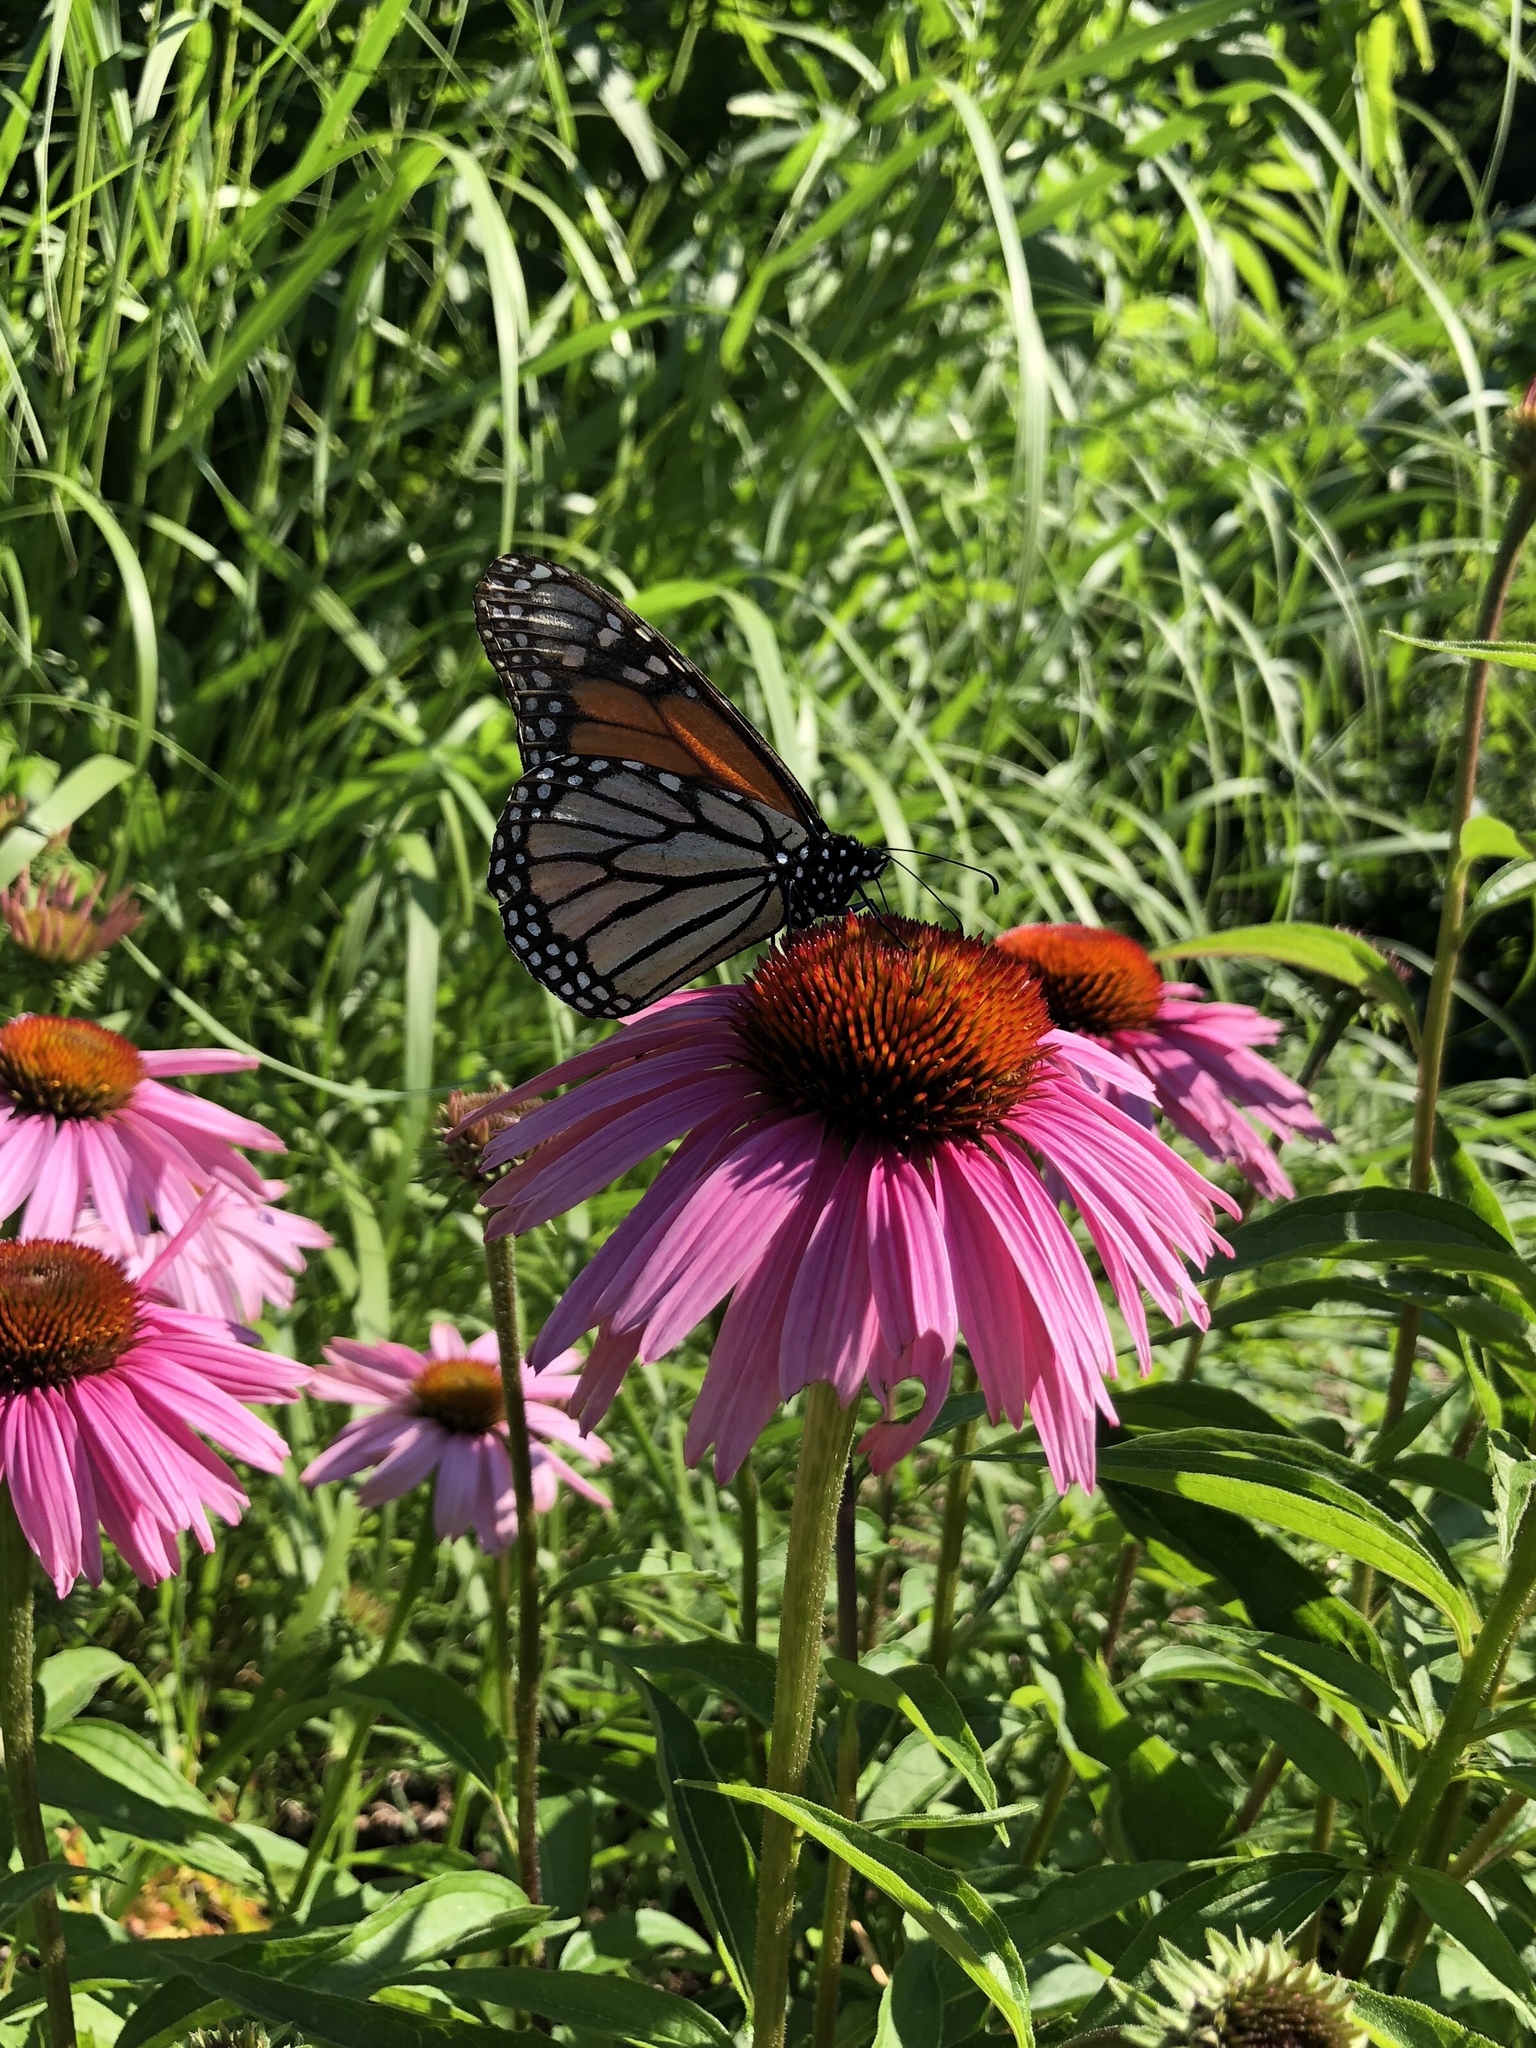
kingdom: Animalia
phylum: Arthropoda
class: Insecta
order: Lepidoptera
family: Nymphalidae
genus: Danaus
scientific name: Danaus plexippus
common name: Monarch
